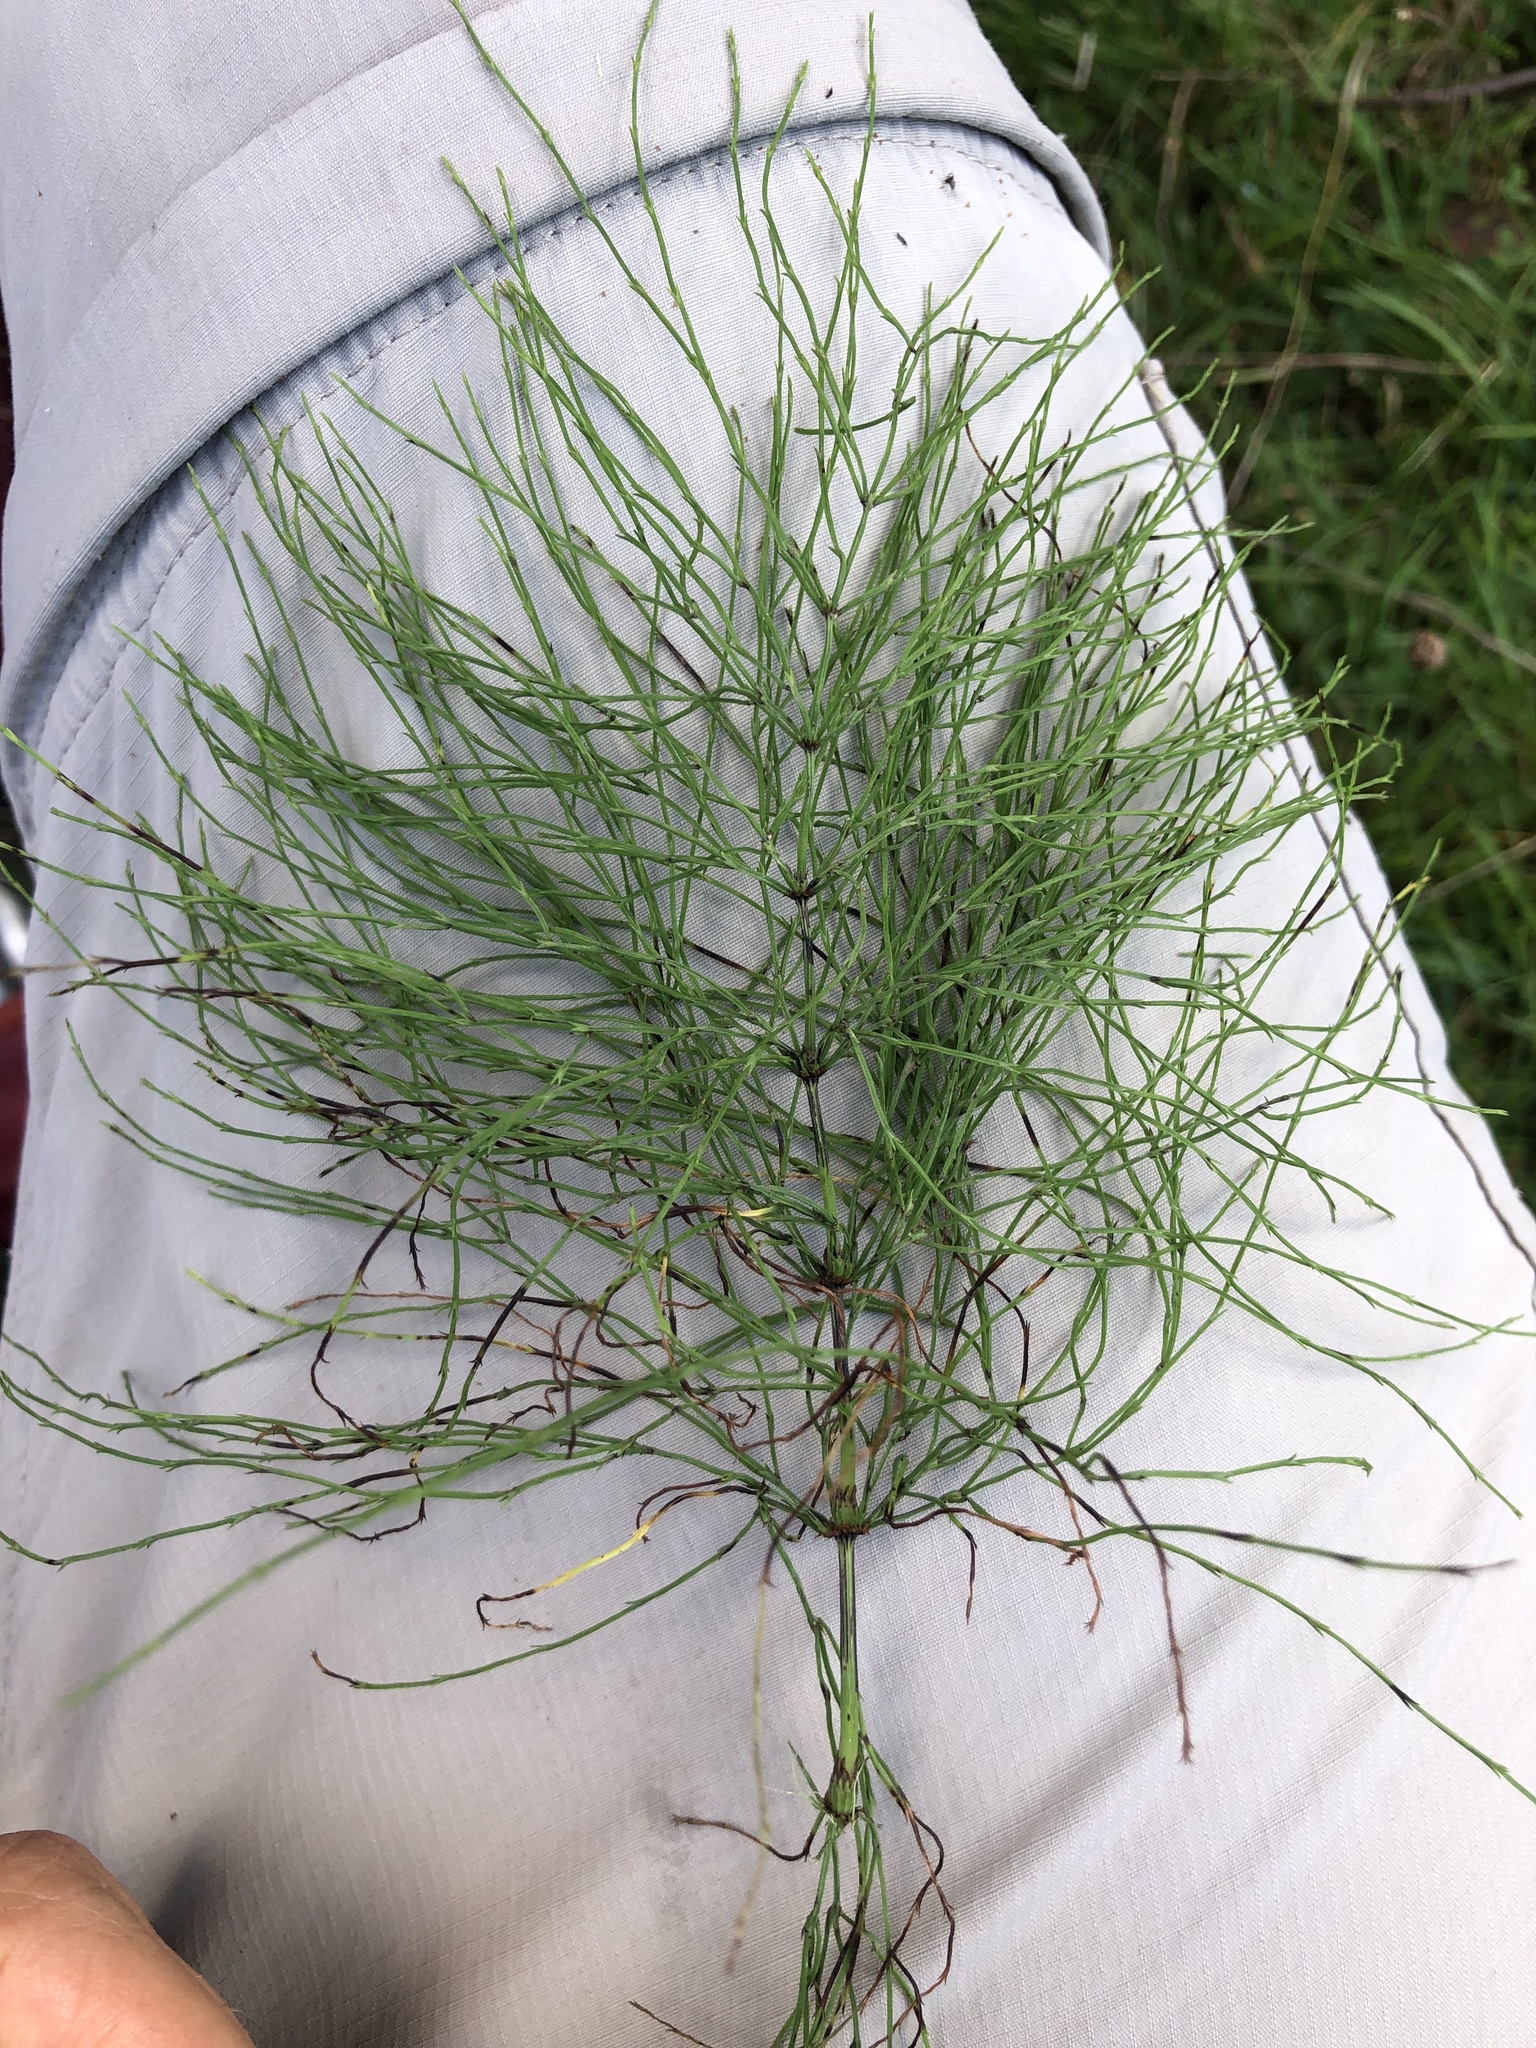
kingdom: Plantae
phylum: Tracheophyta
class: Polypodiopsida
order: Equisetales
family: Equisetaceae
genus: Equisetum
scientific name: Equisetum sylvaticum
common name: Wood horsetail
